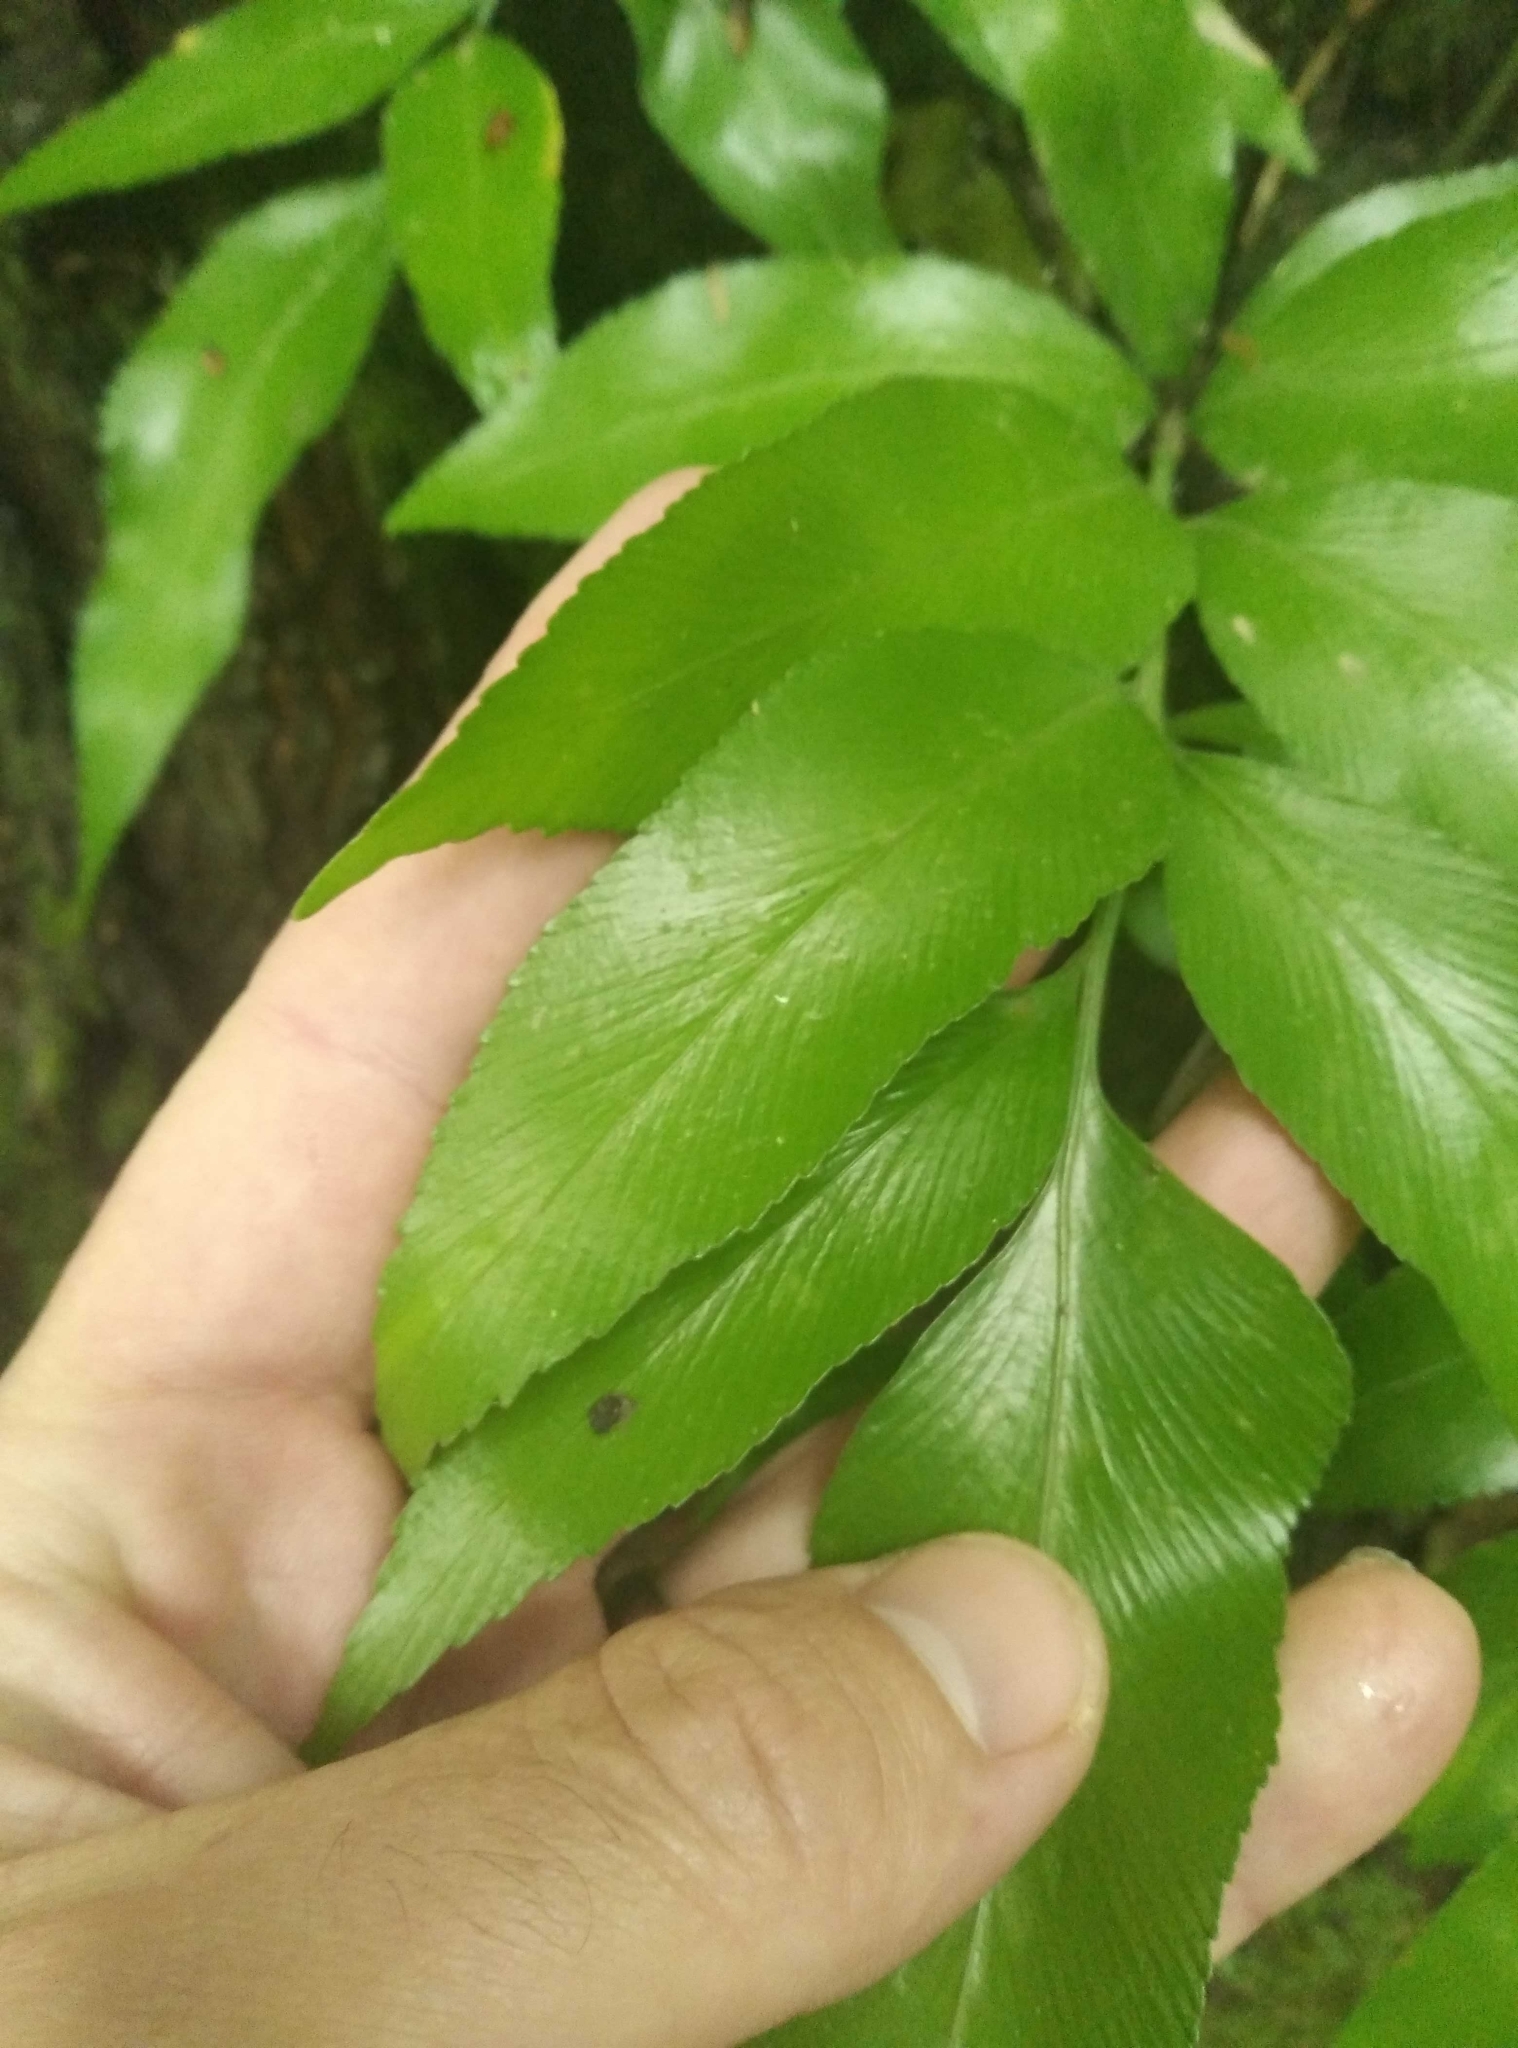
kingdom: Plantae
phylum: Tracheophyta
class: Polypodiopsida
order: Polypodiales
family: Aspleniaceae
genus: Asplenium
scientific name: Asplenium oblongifolium
